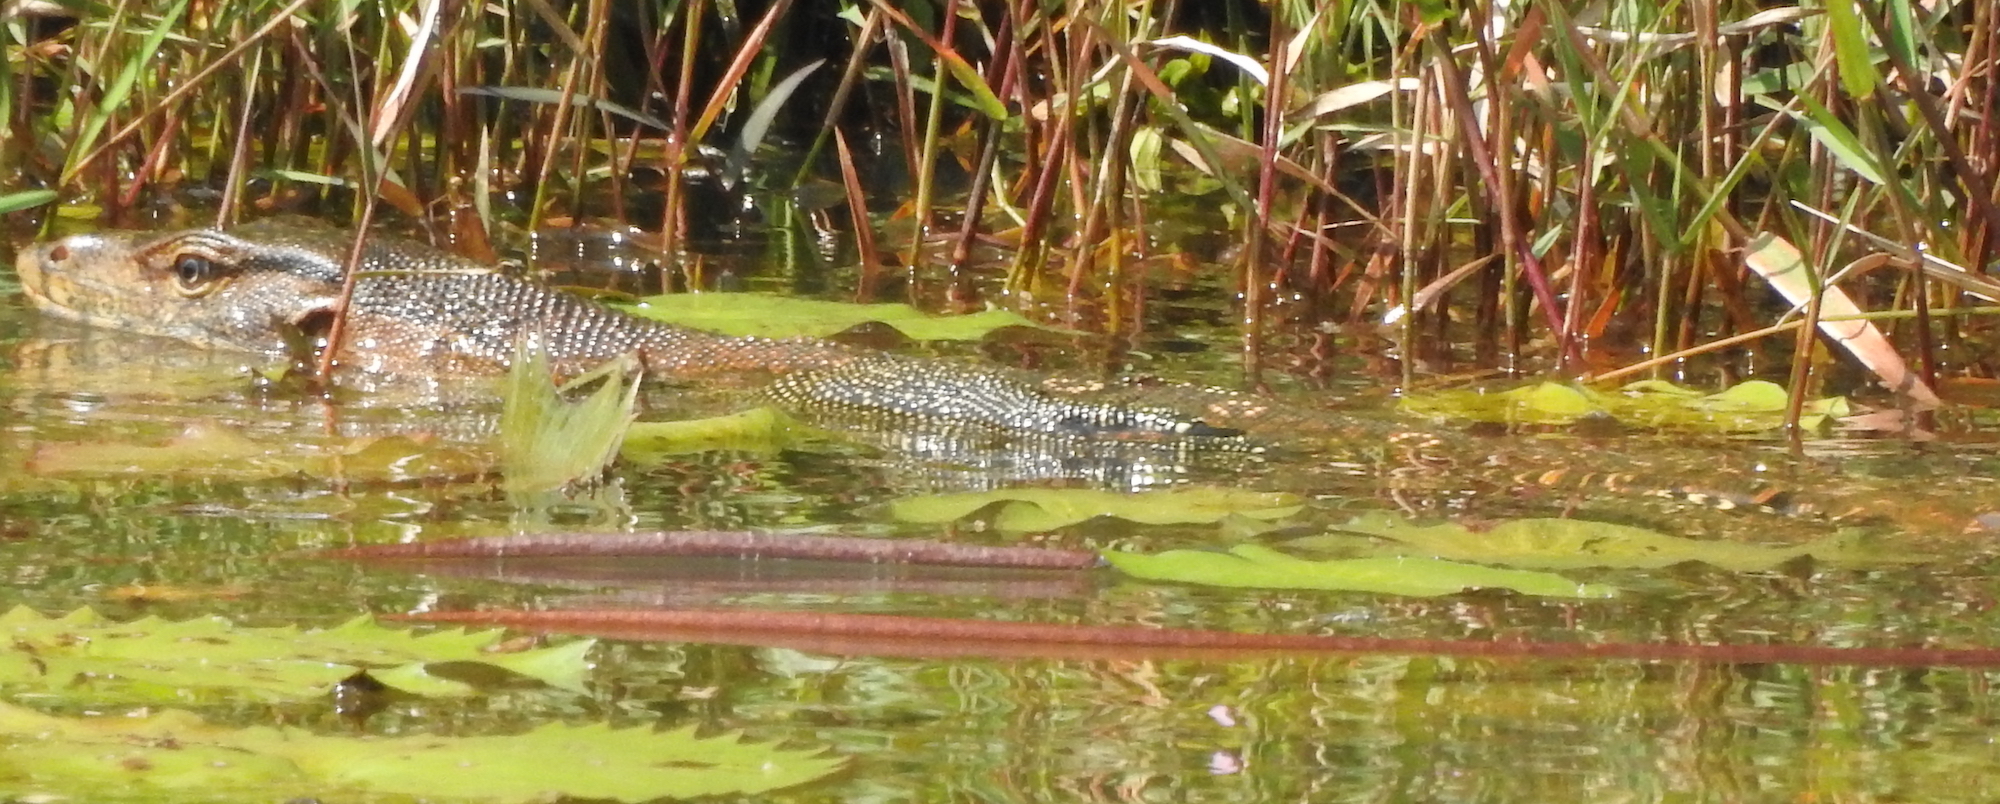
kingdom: Animalia
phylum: Chordata
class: Squamata
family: Varanidae
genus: Varanus
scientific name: Varanus salvator
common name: Common water monitor
